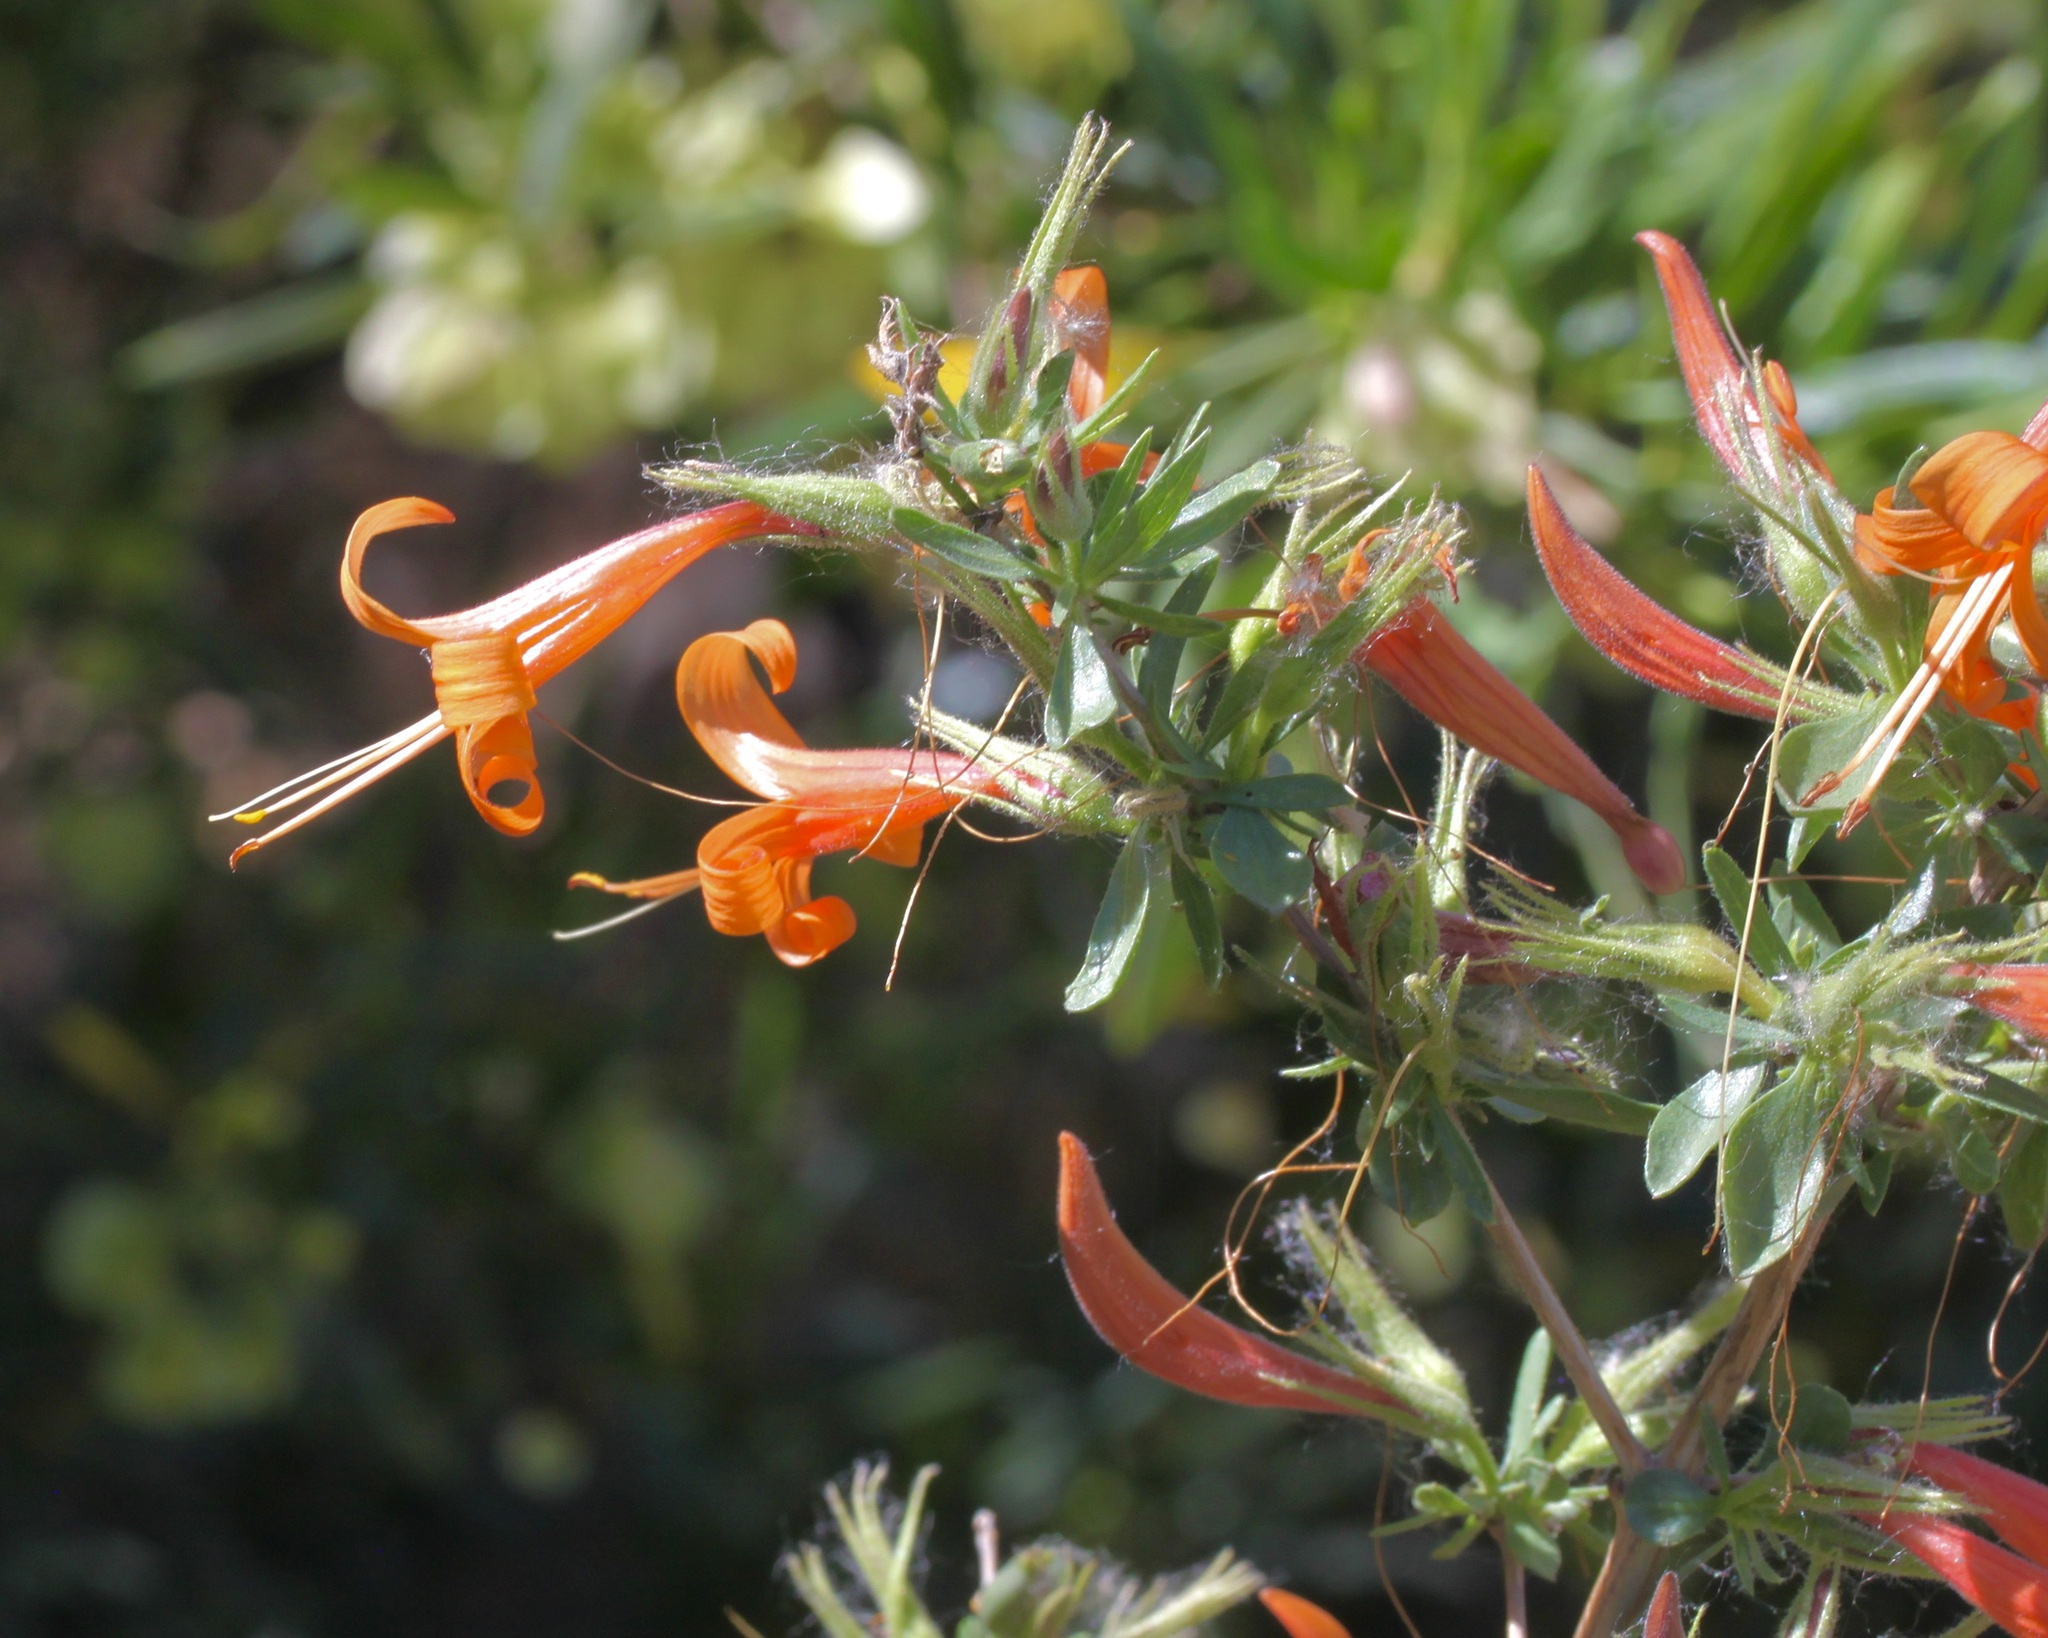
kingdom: Plantae
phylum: Tracheophyta
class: Magnoliopsida
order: Lamiales
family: Acanthaceae
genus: Anisacanthus
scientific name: Anisacanthus thurberi
